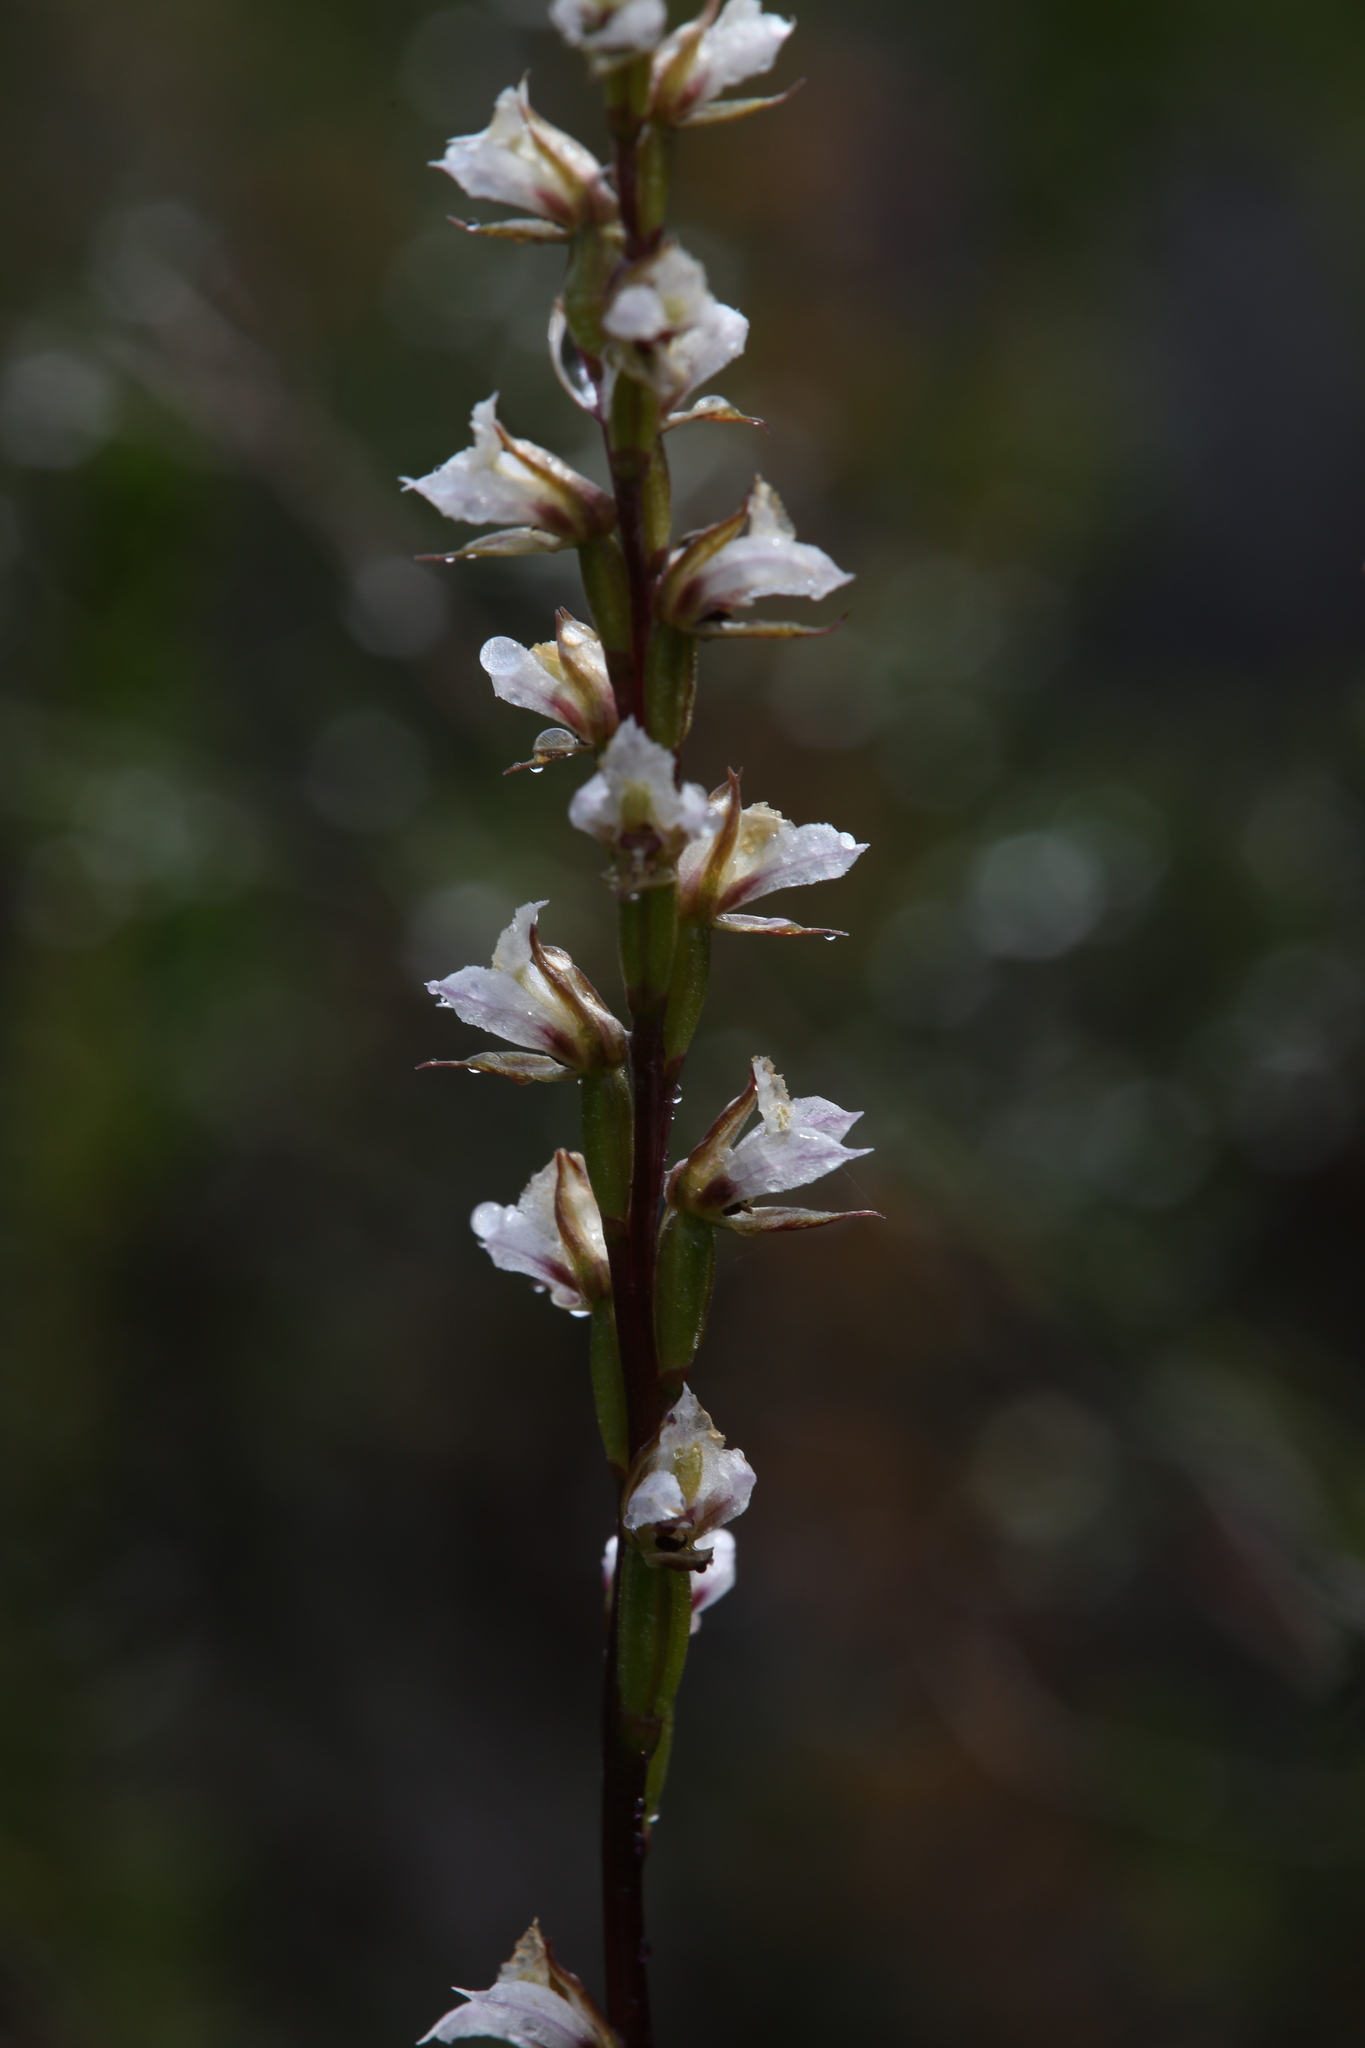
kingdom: Plantae
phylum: Tracheophyta
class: Liliopsida
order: Asparagales
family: Orchidaceae
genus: Prasophyllum
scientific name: Prasophyllum ovale
